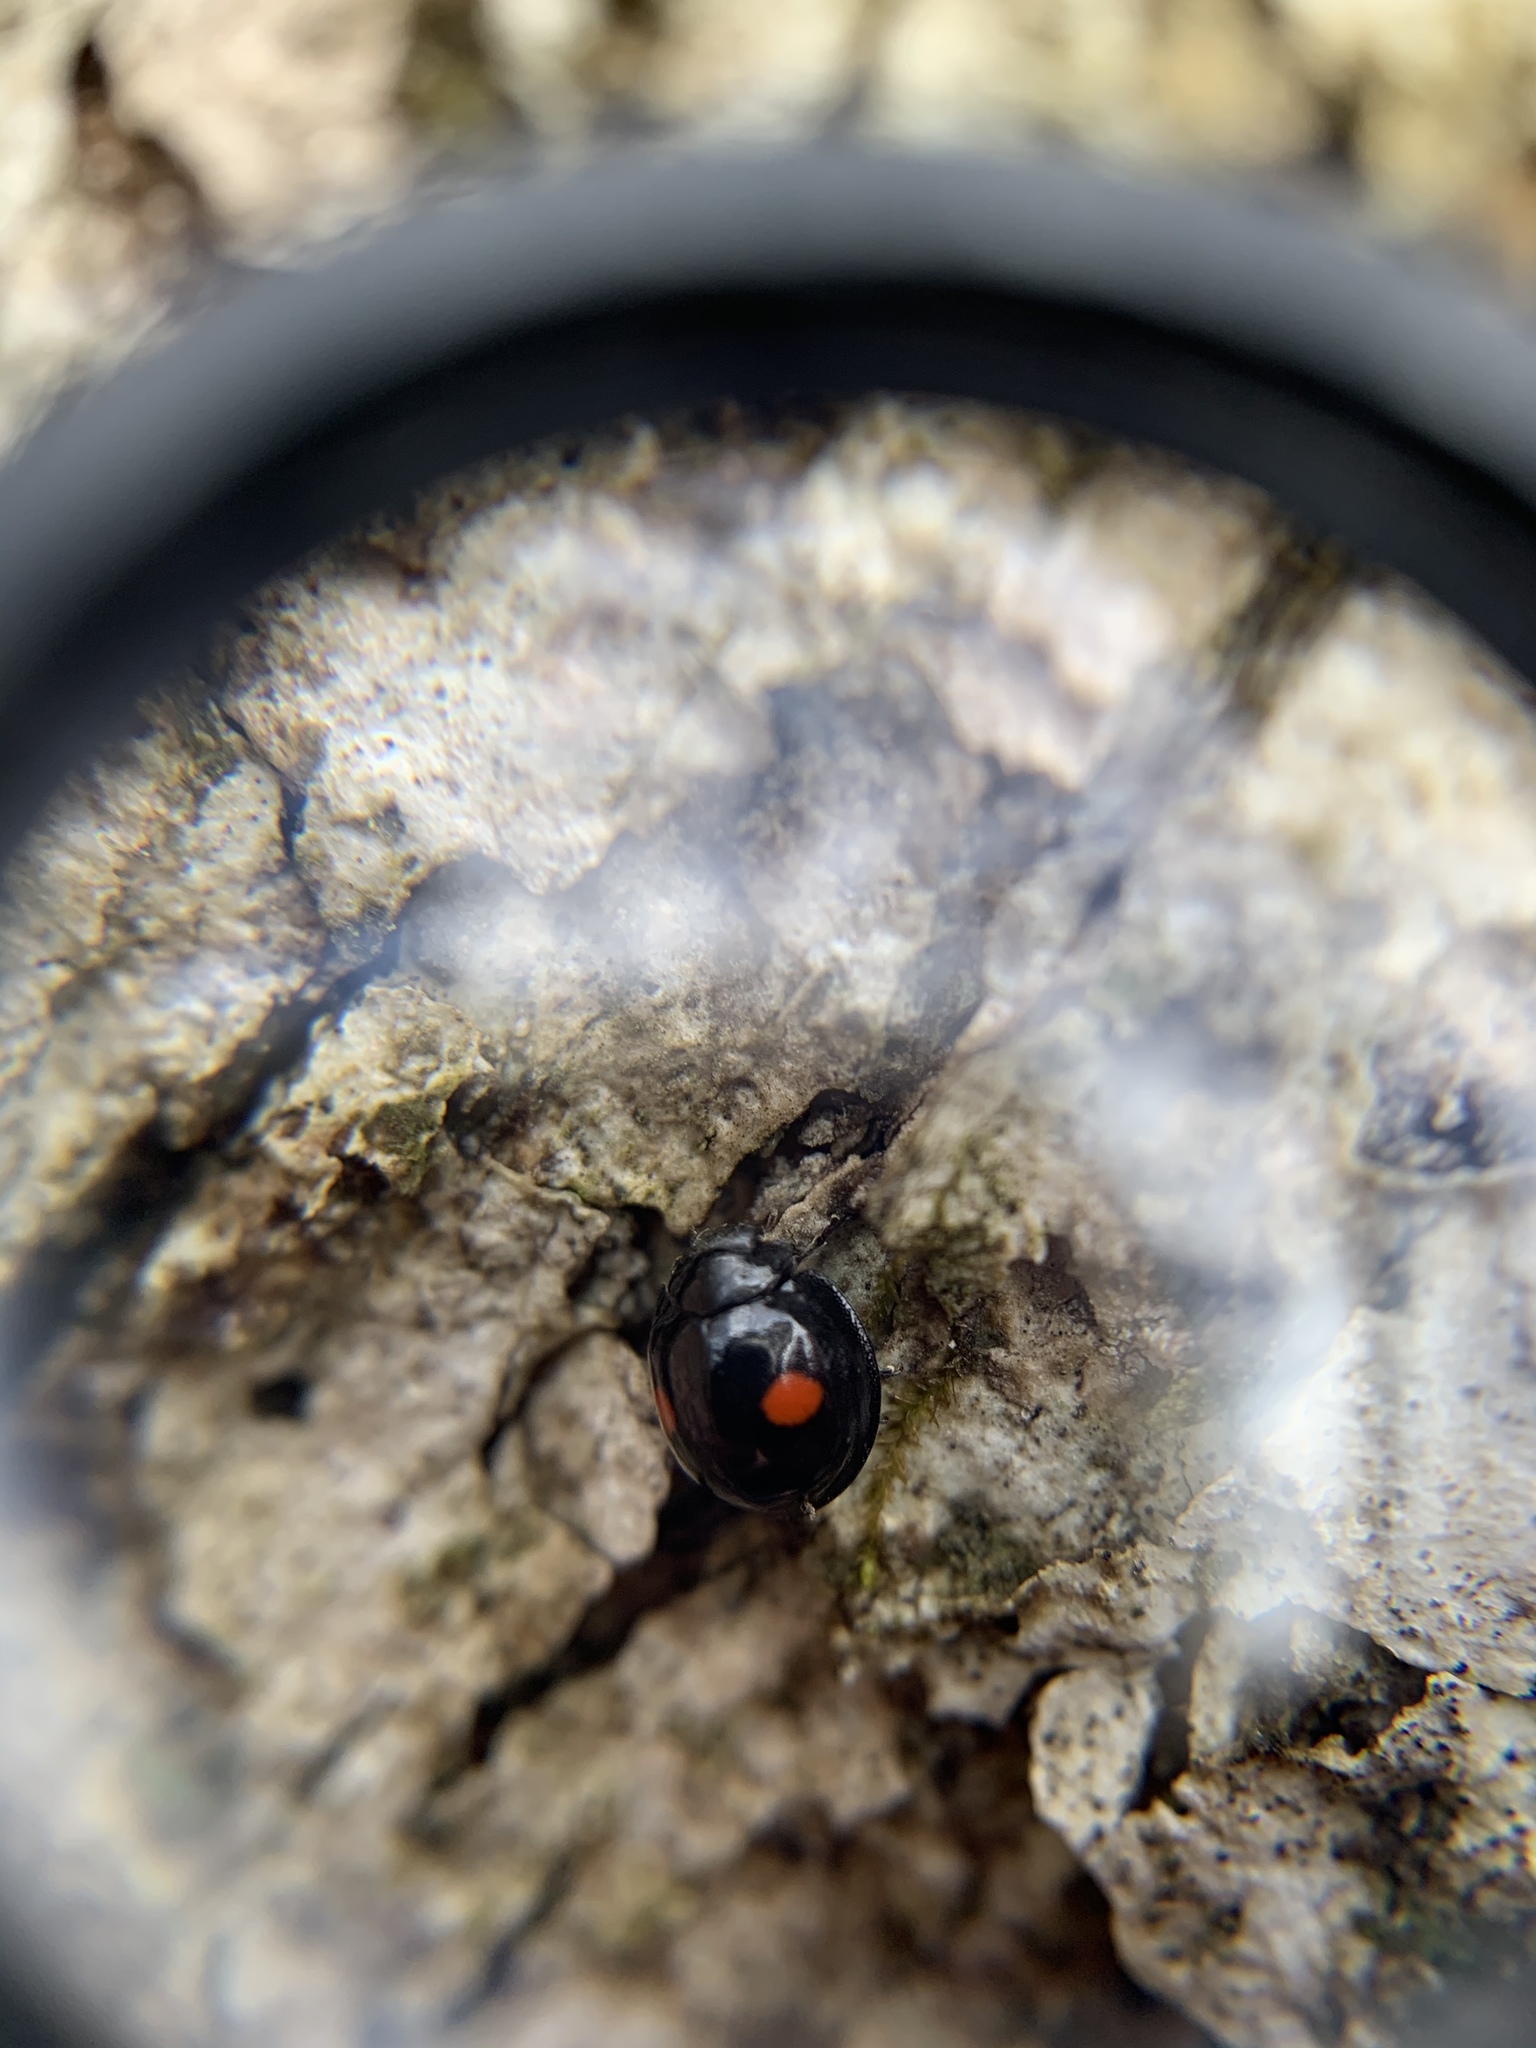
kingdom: Animalia
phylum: Arthropoda
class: Insecta
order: Coleoptera
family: Coccinellidae
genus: Chilocorus
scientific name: Chilocorus stigma
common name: Twicestabbed lady beetle
